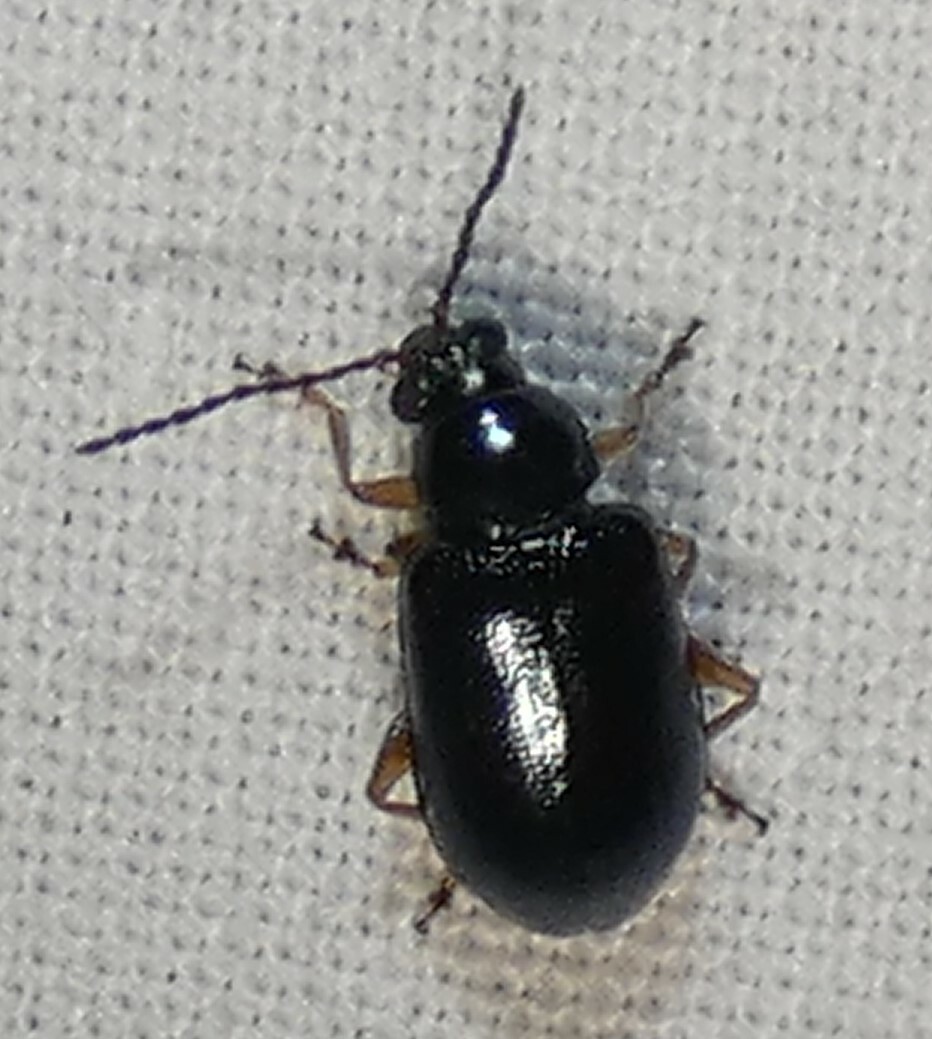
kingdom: Animalia
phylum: Arthropoda
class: Insecta
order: Coleoptera
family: Chrysomelidae
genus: Lysathia
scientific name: Lysathia ludoviciana
